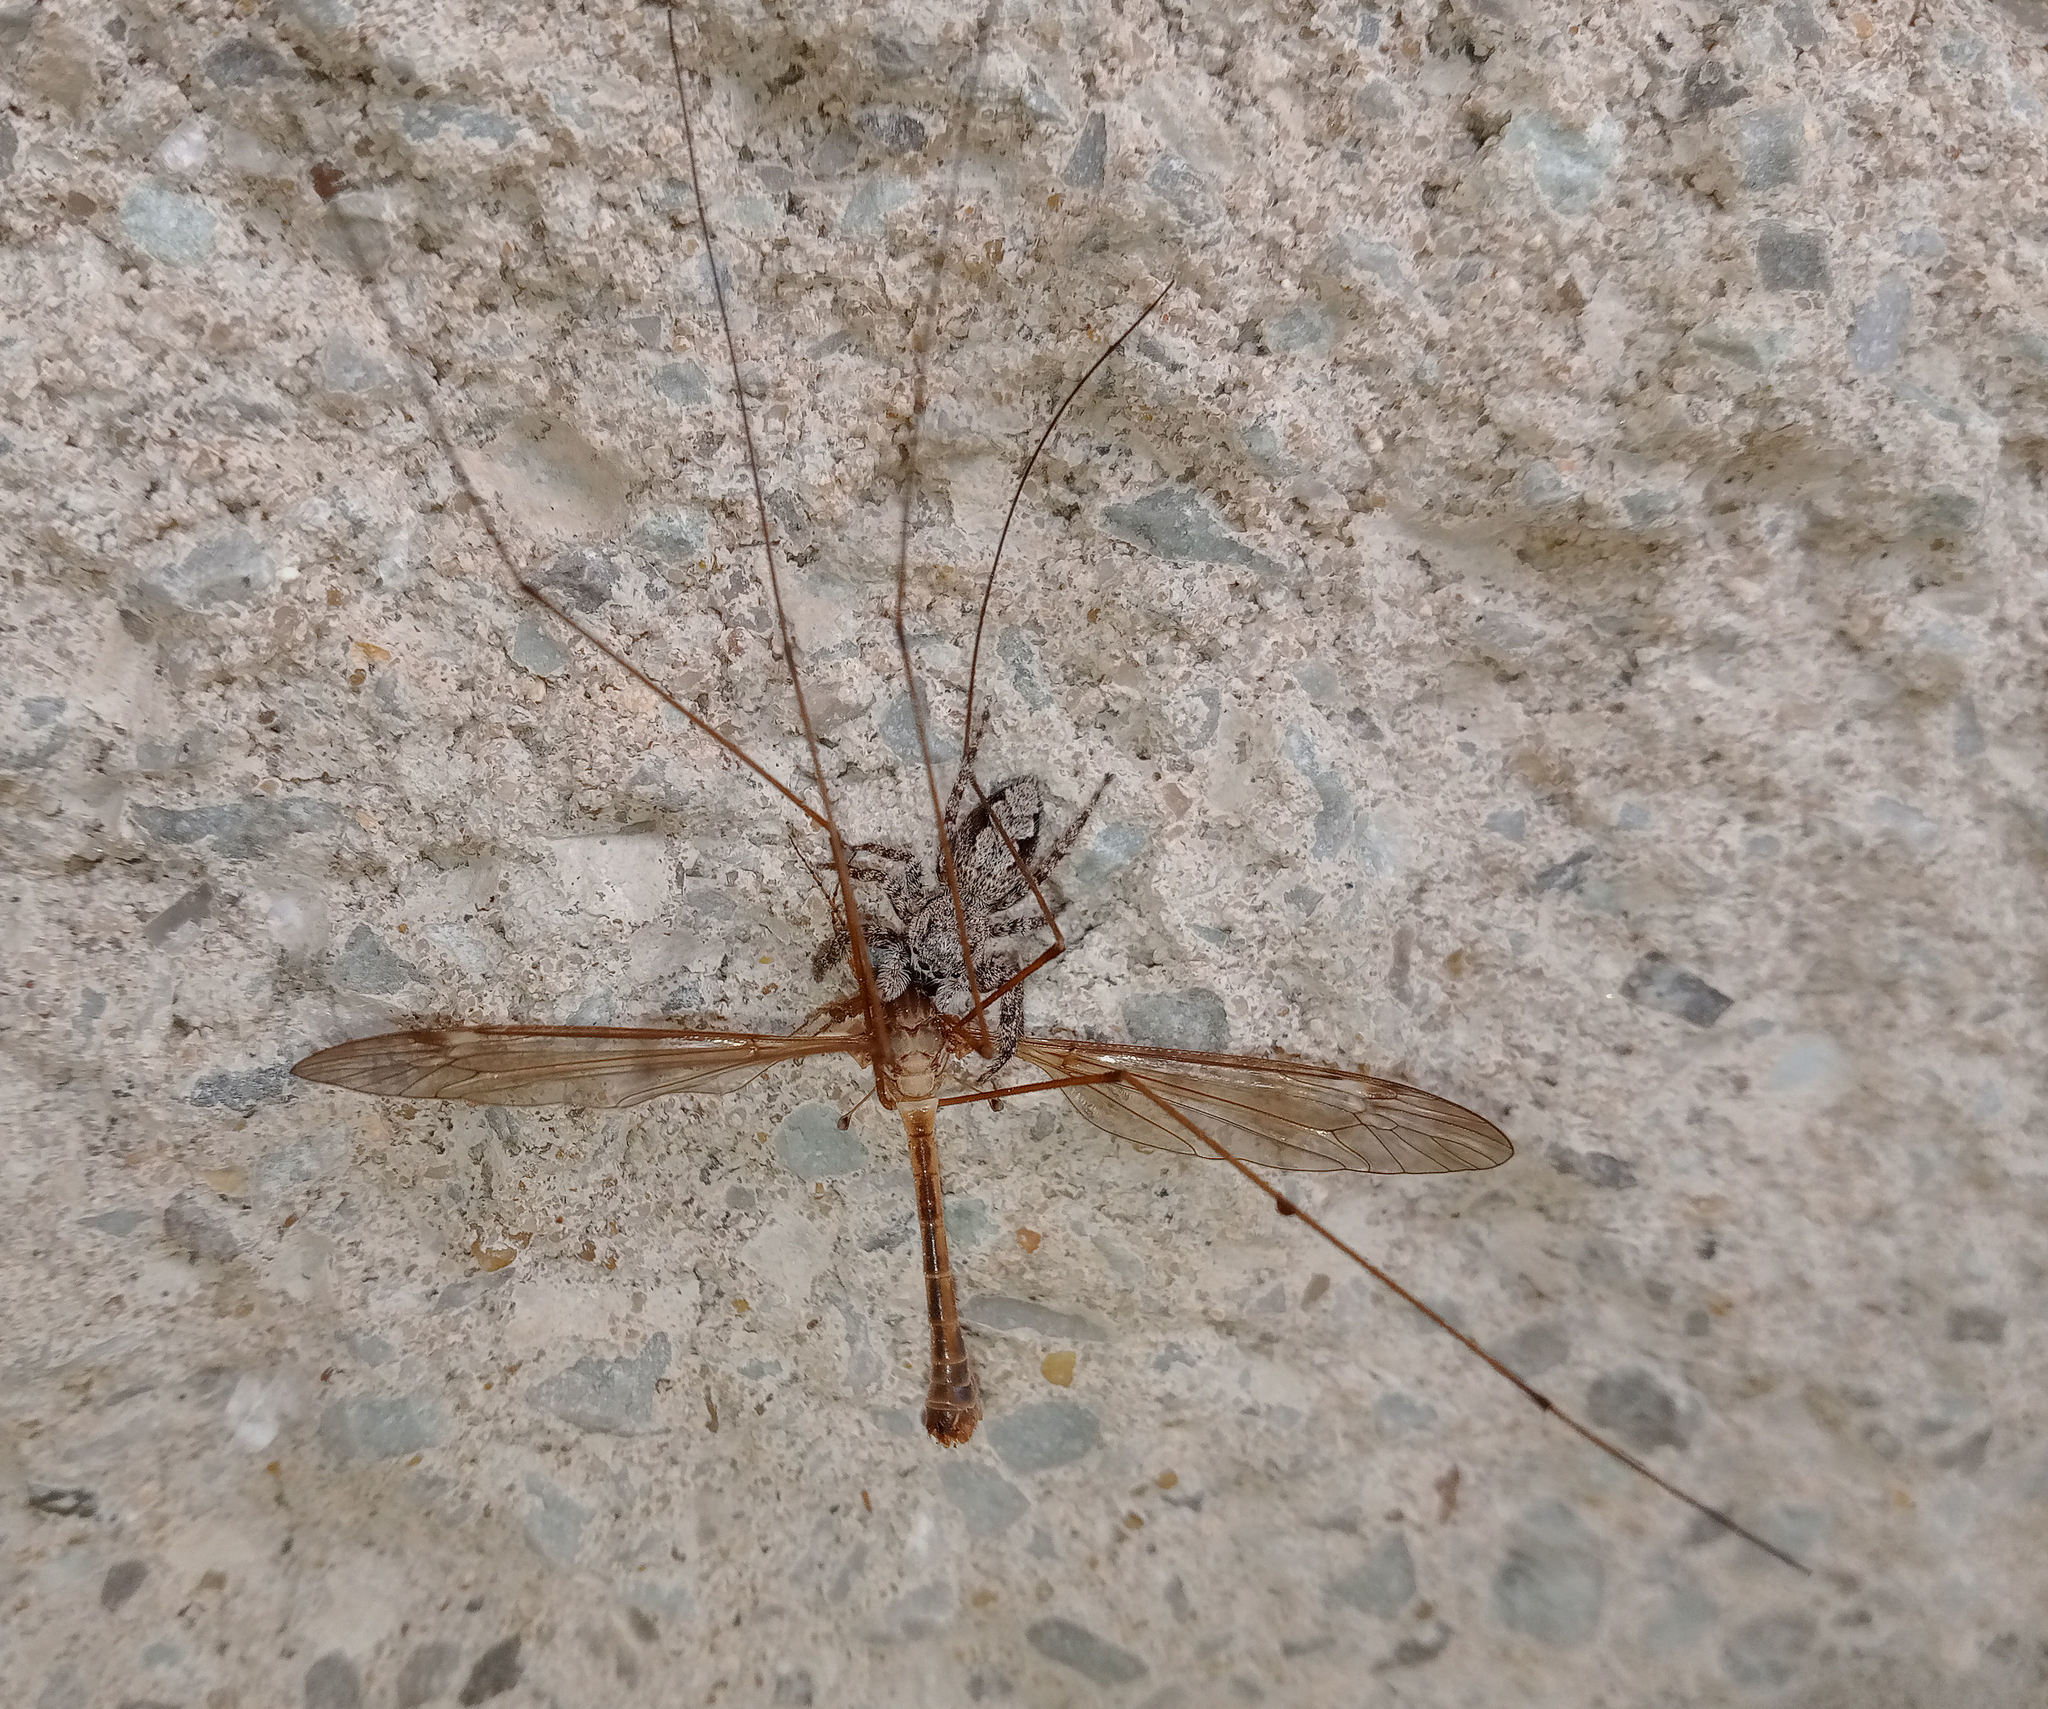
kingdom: Animalia
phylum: Arthropoda
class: Arachnida
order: Araneae
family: Salticidae
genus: Platycryptus
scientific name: Platycryptus undatus
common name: Tan jumping spider
